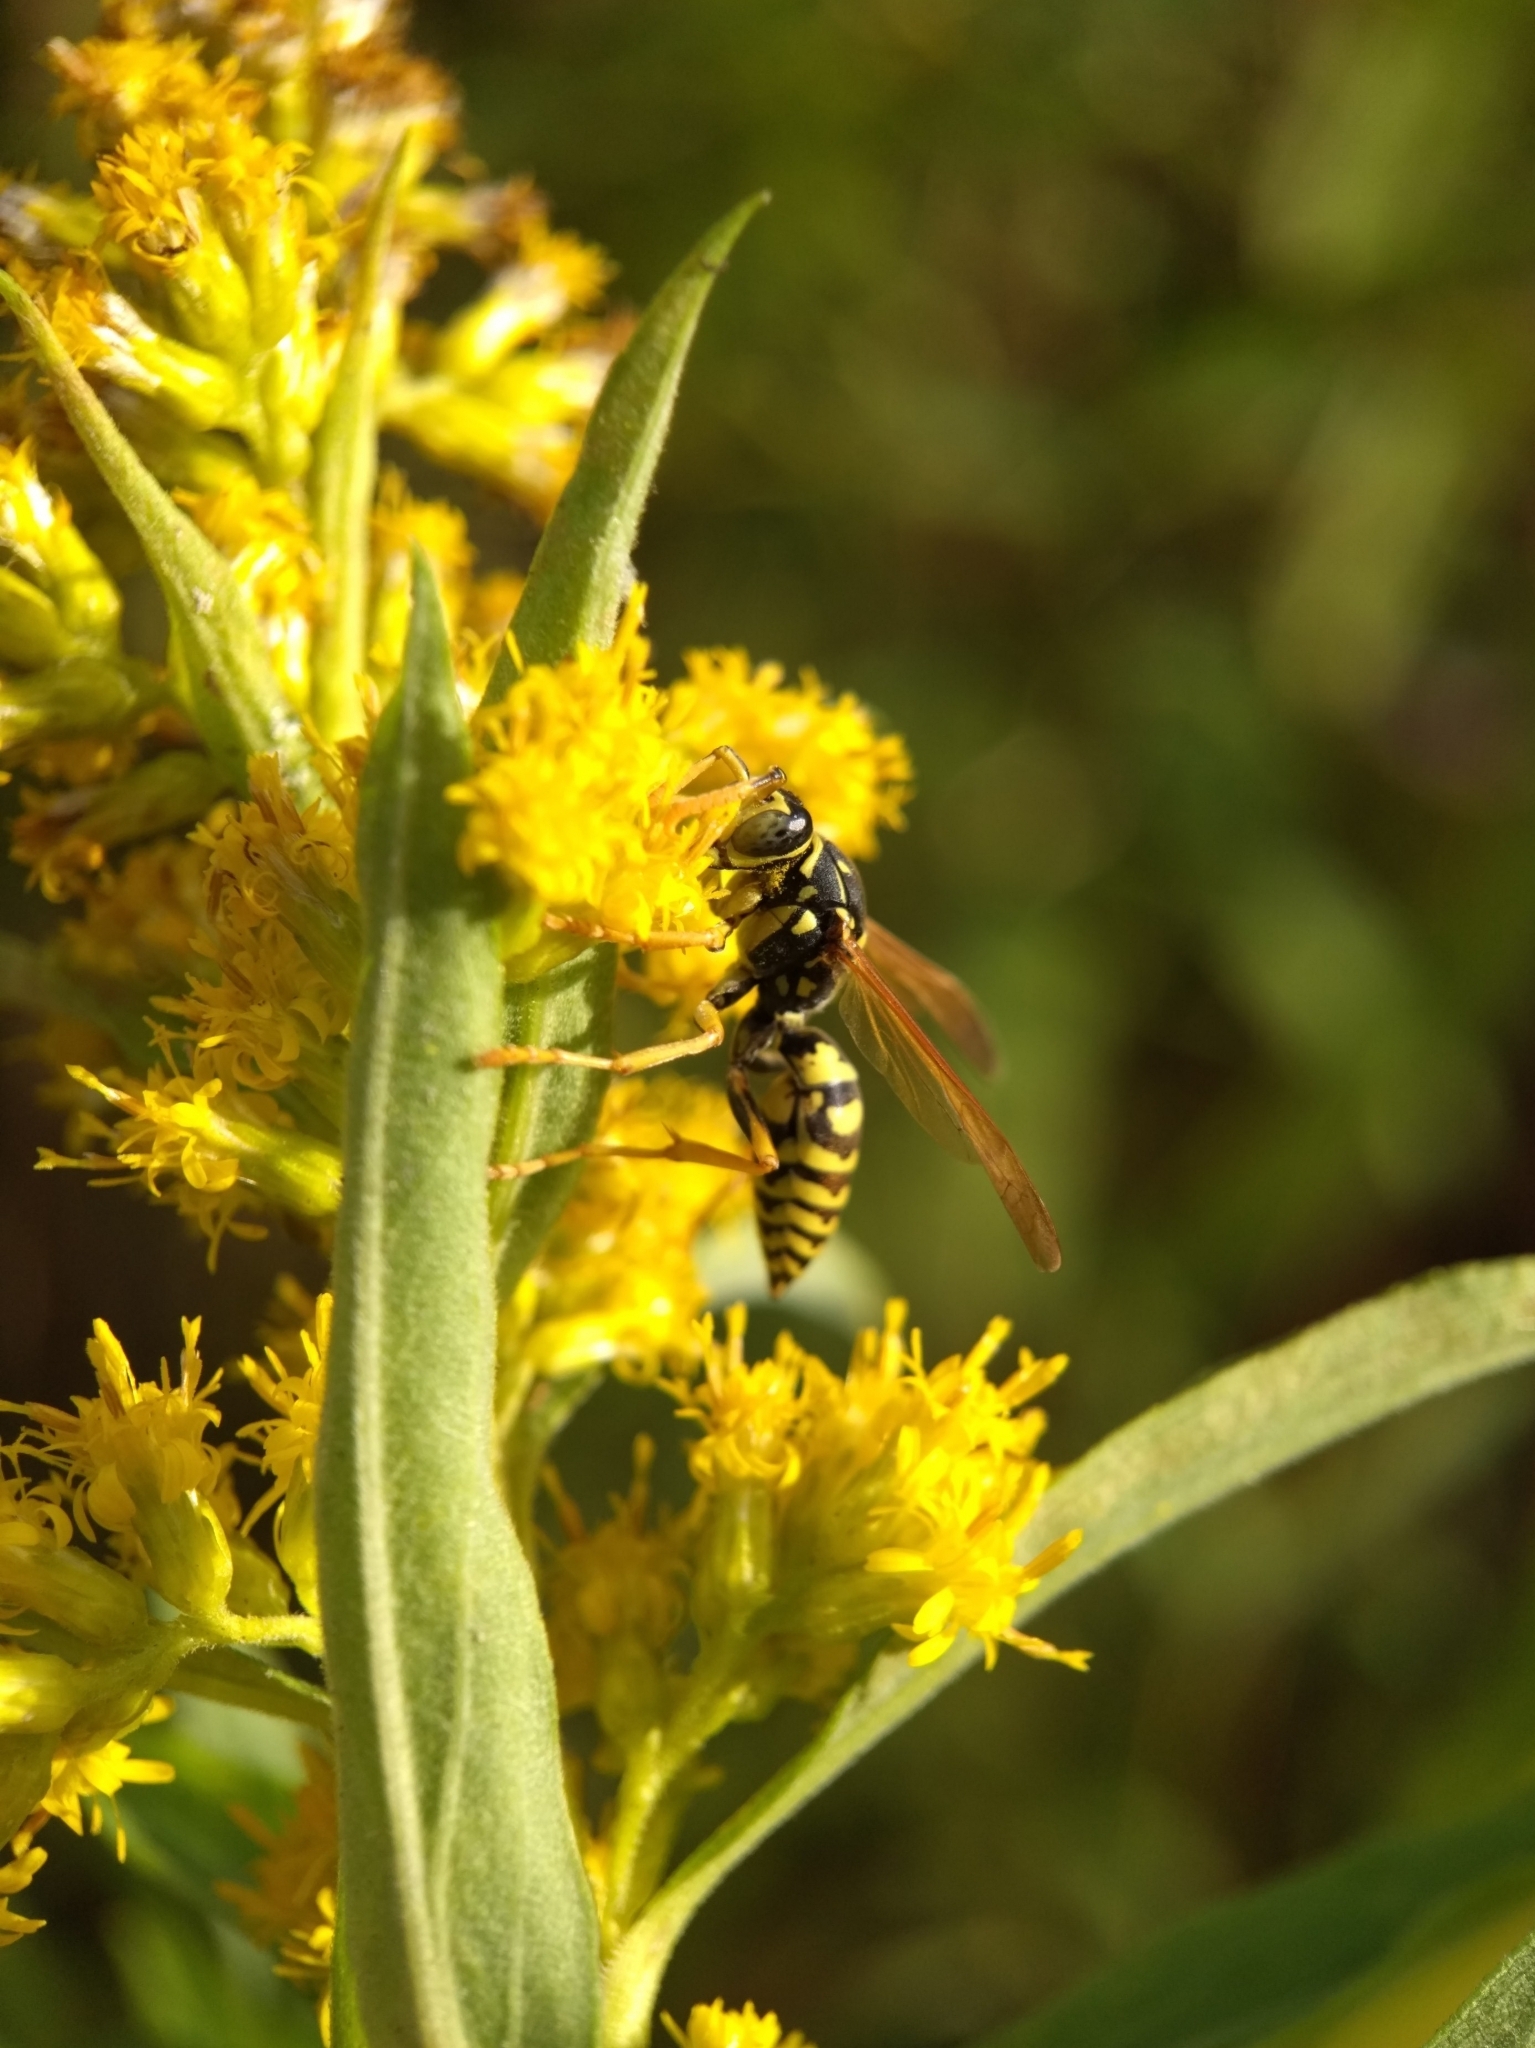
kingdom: Animalia
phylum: Arthropoda
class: Insecta
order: Hymenoptera
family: Eumenidae
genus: Polistes
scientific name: Polistes dominula
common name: Paper wasp
